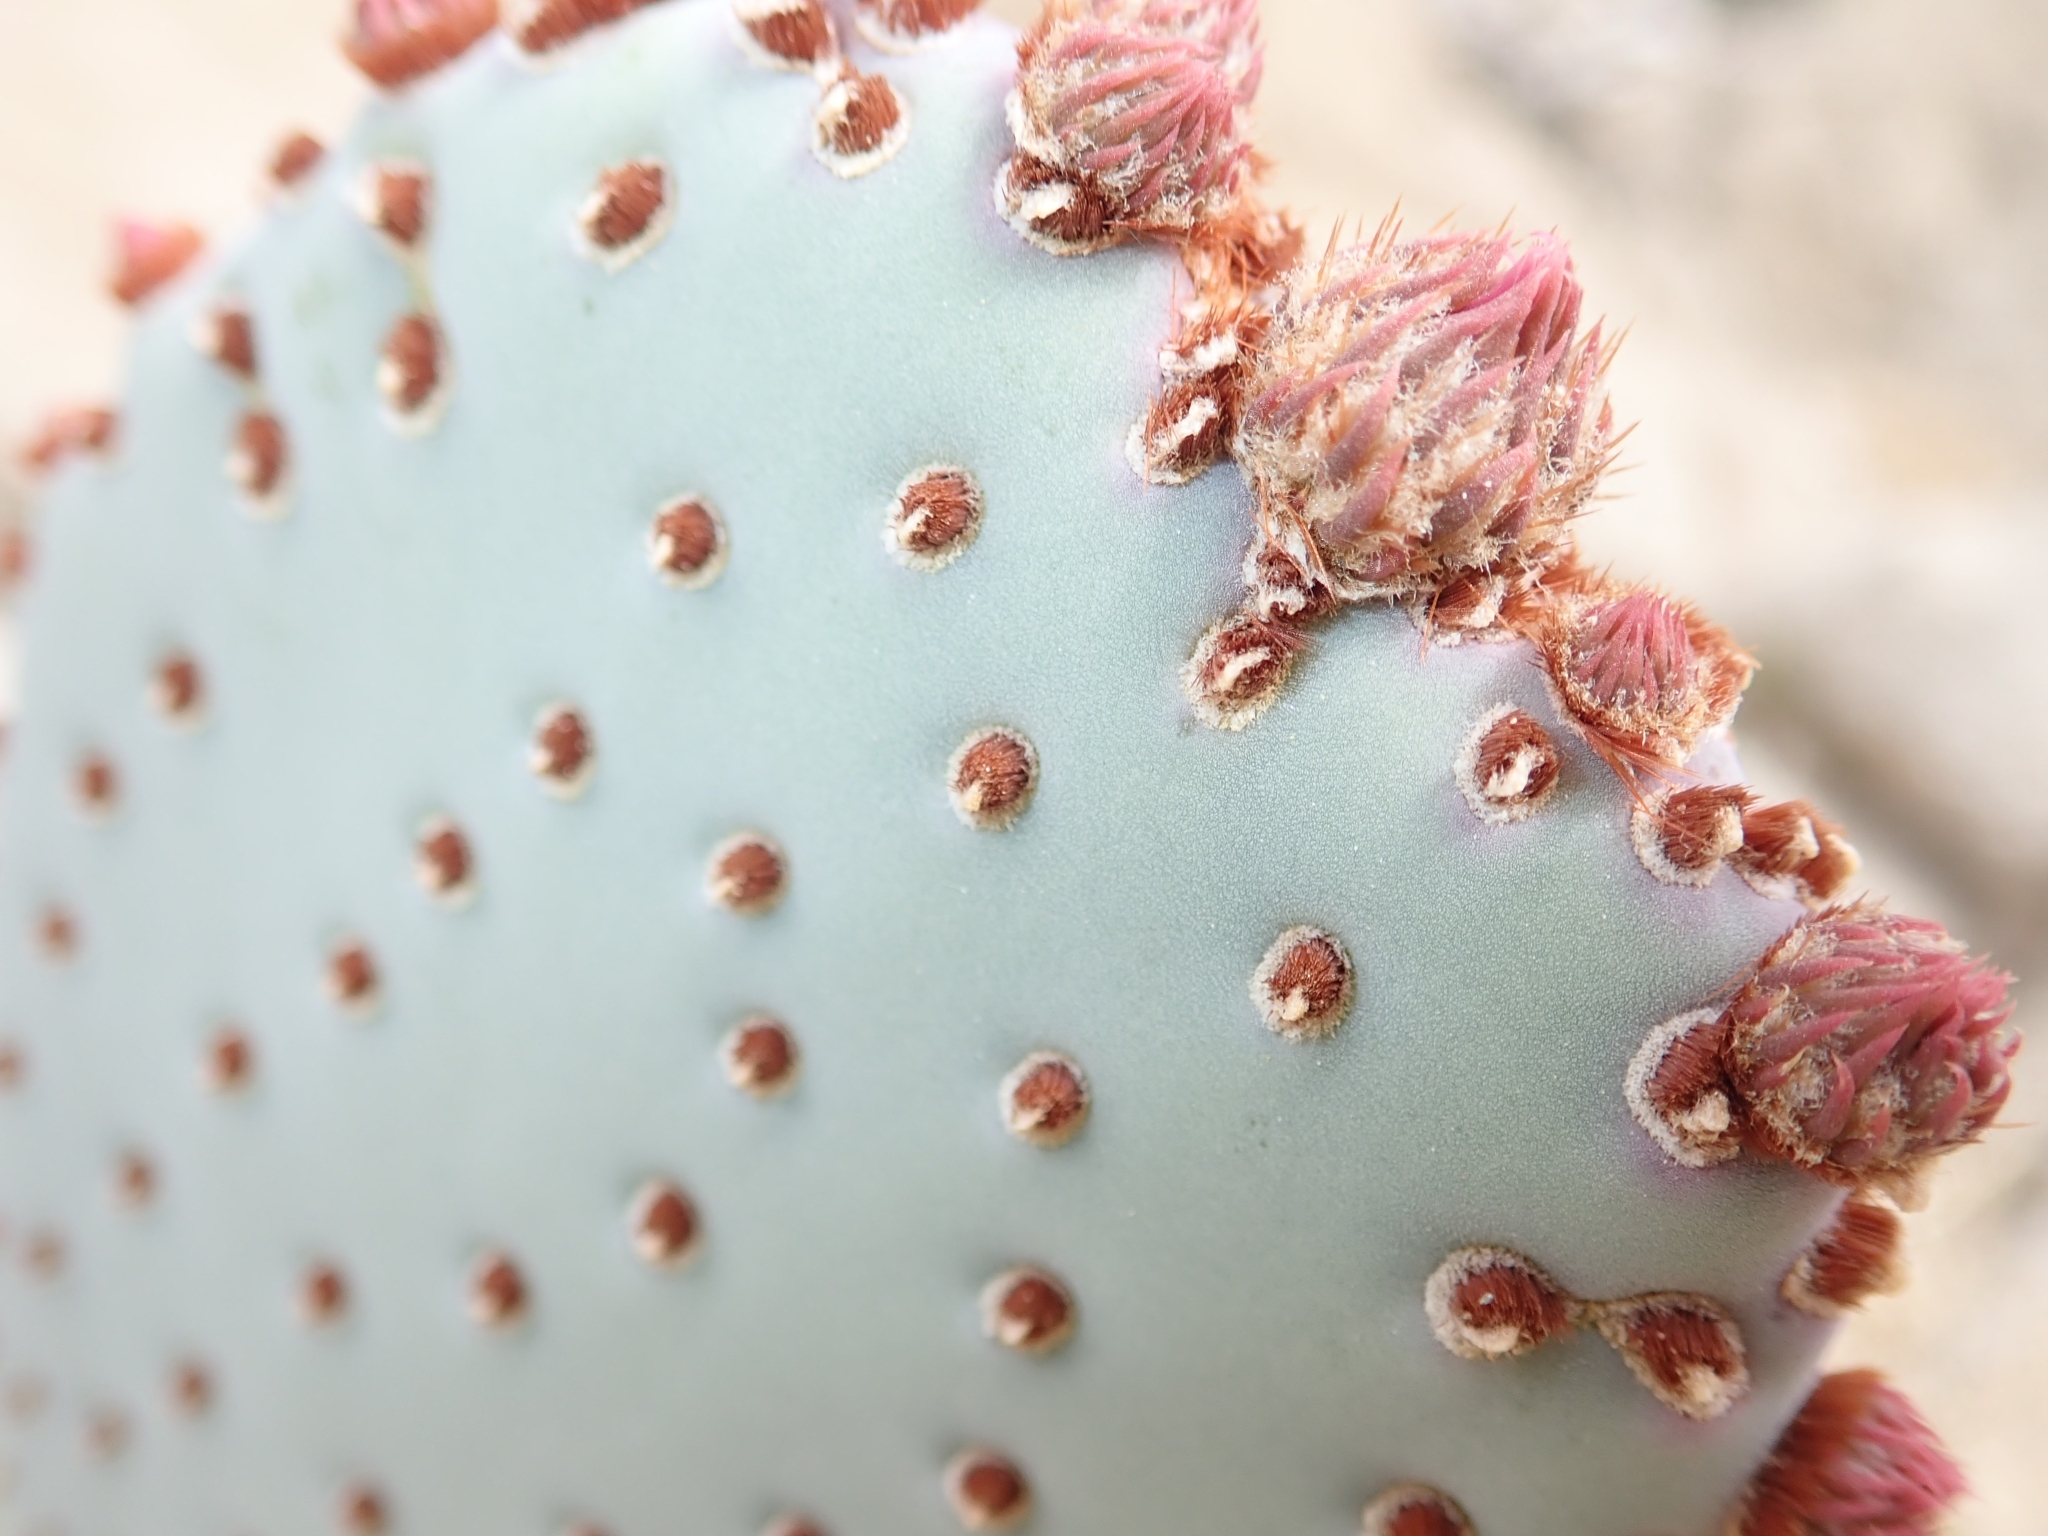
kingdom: Plantae
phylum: Tracheophyta
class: Magnoliopsida
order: Caryophyllales
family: Cactaceae
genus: Opuntia
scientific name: Opuntia basilaris
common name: Beavertail prickly-pear
